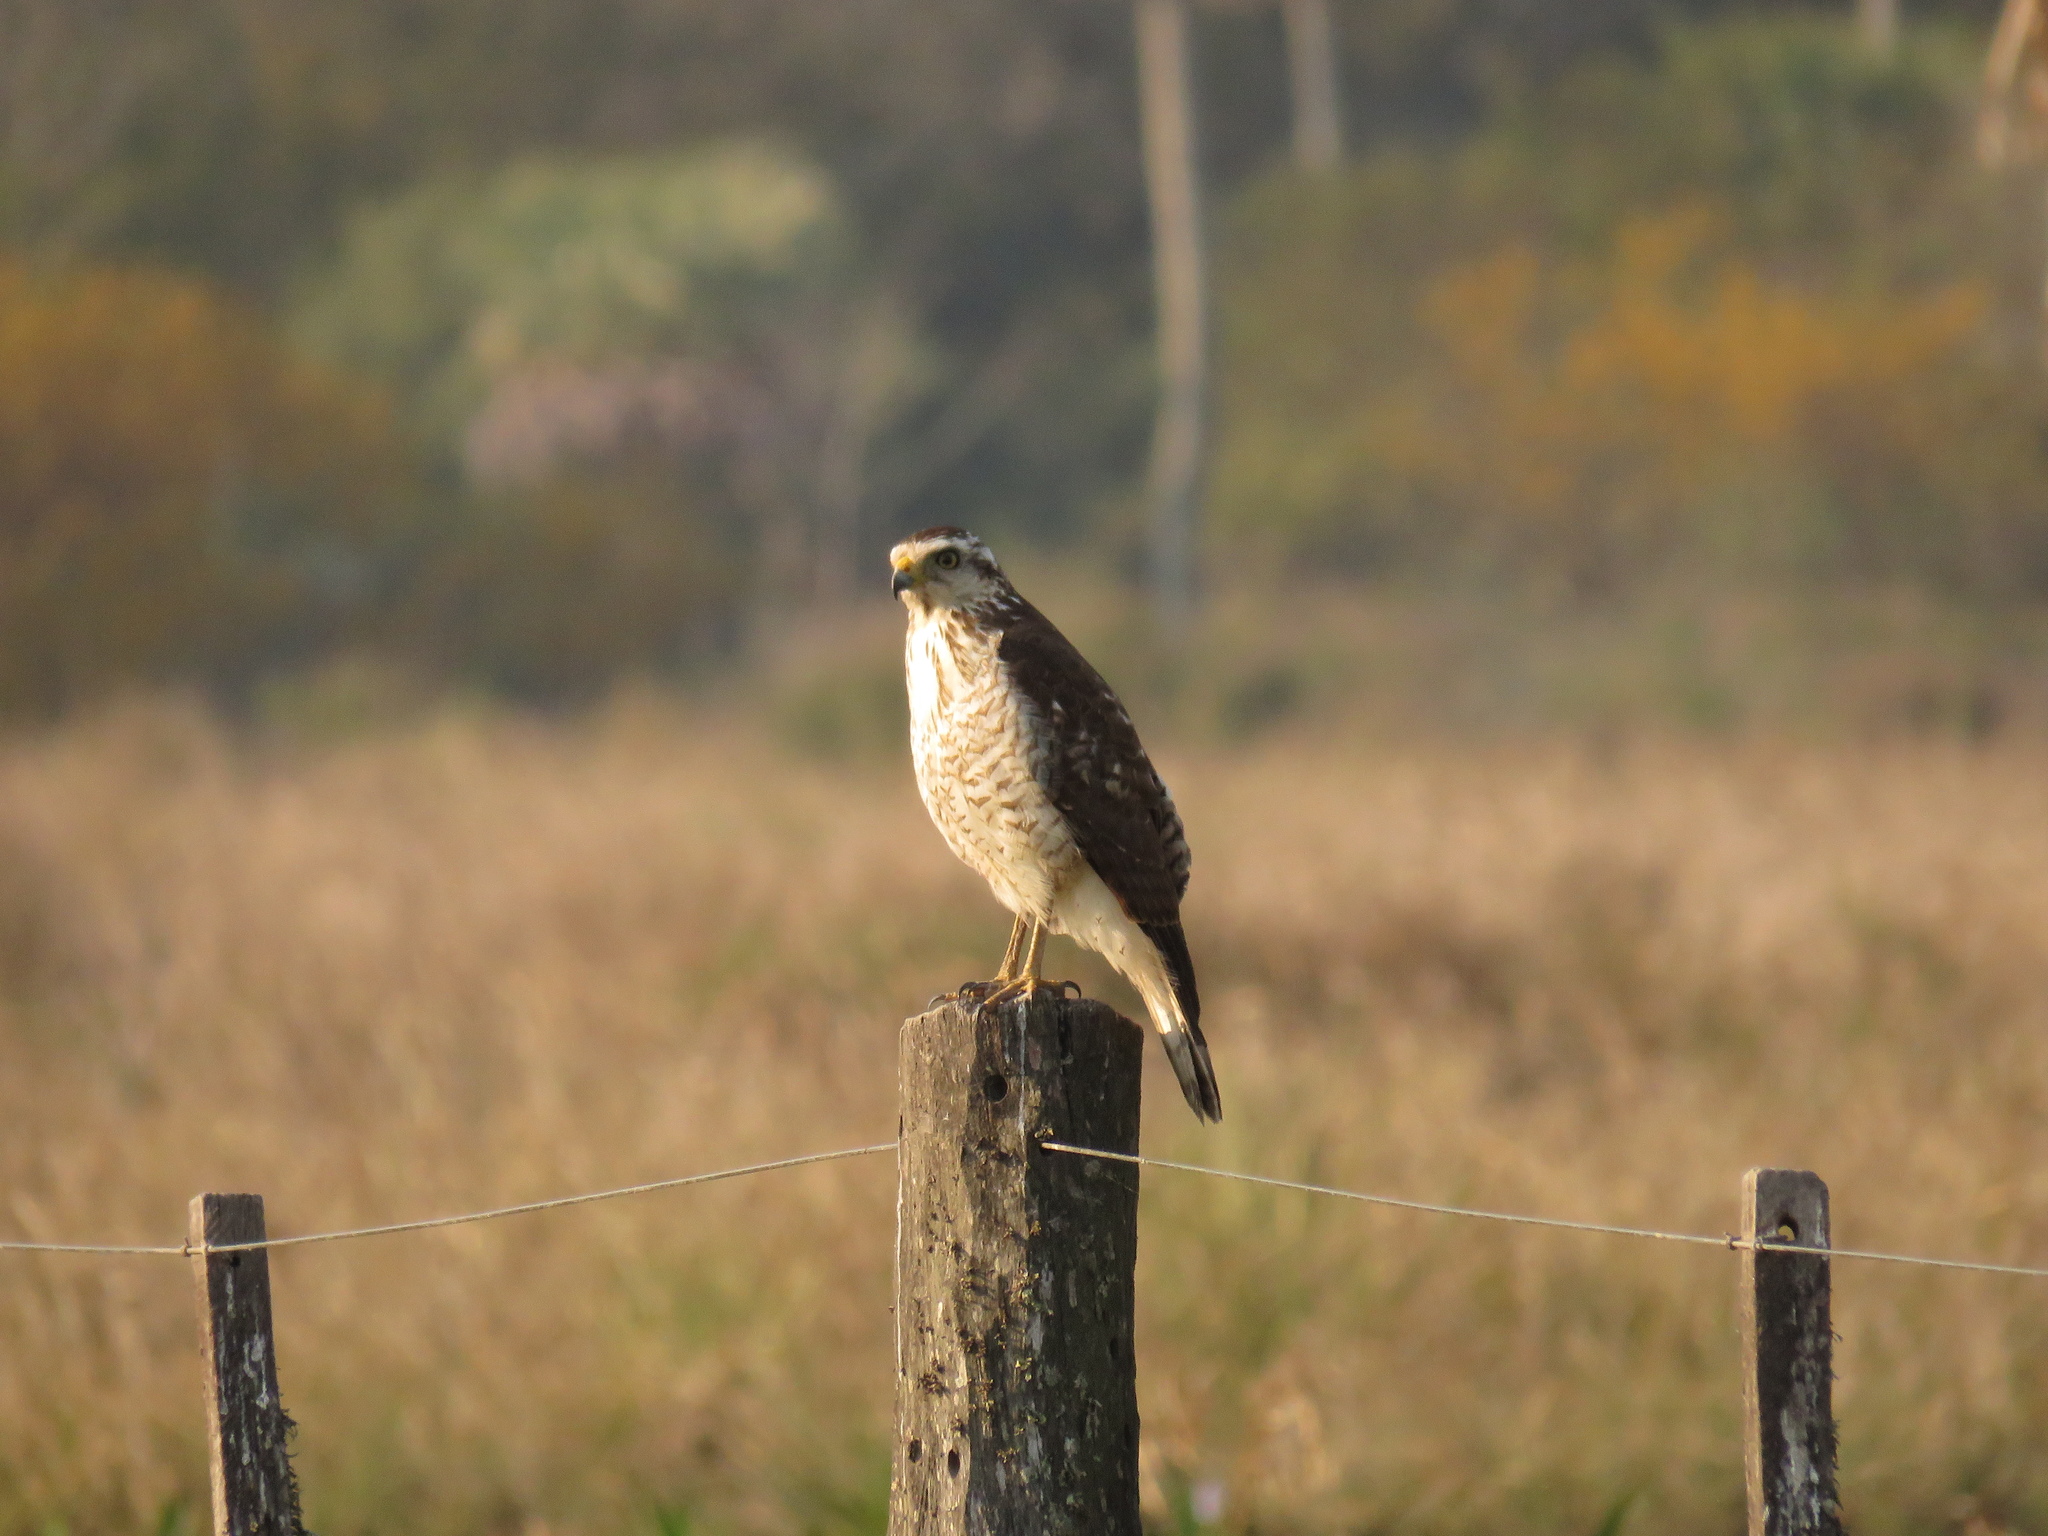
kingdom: Animalia
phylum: Chordata
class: Aves
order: Accipitriformes
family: Accipitridae
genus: Rupornis
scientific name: Rupornis magnirostris
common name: Roadside hawk
